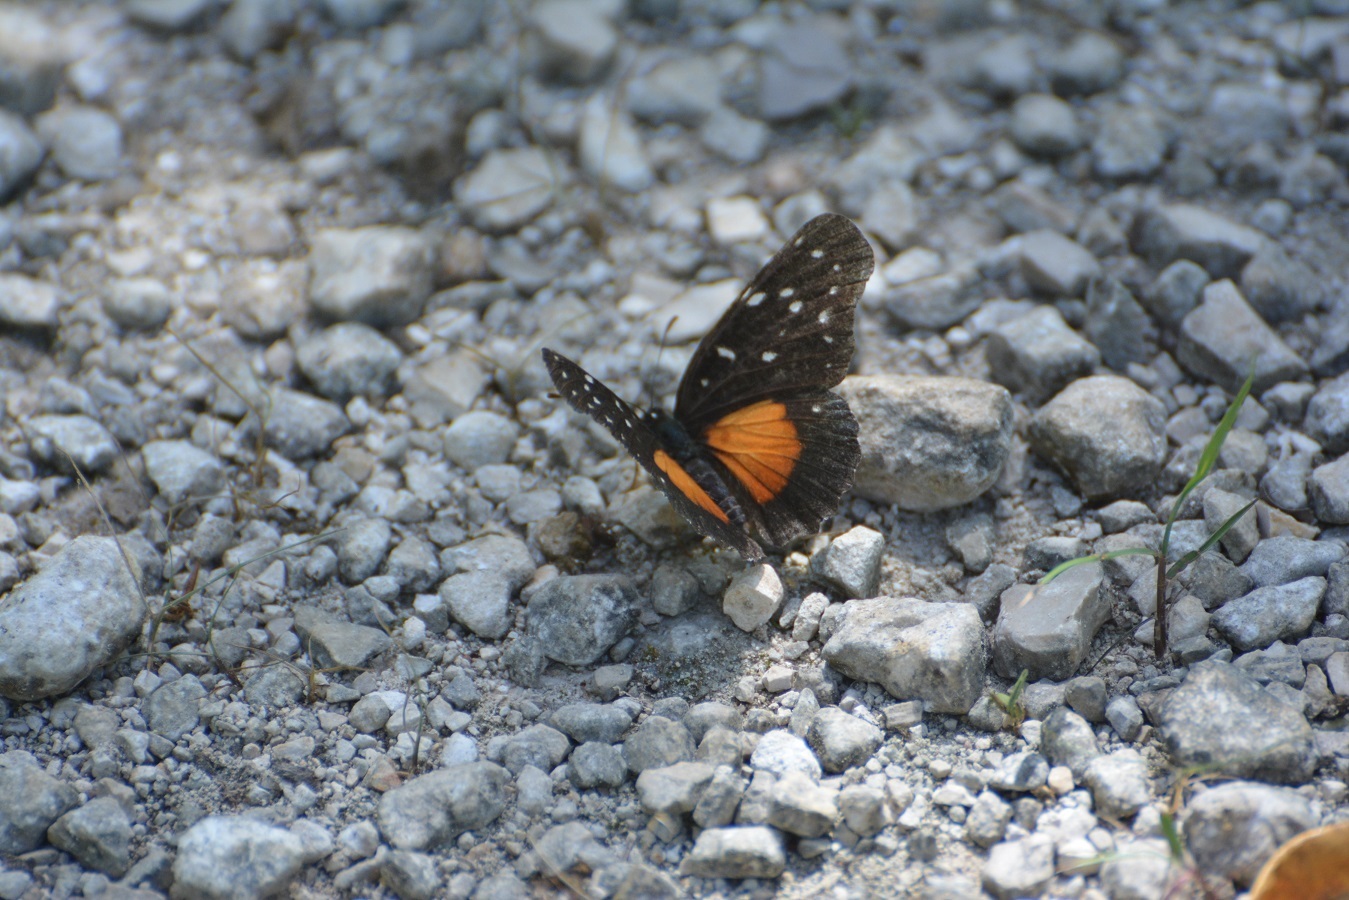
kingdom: Animalia
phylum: Arthropoda
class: Insecta
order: Lepidoptera
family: Nymphalidae
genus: Chlosyne
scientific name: Chlosyne rosita
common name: Rosita patch
